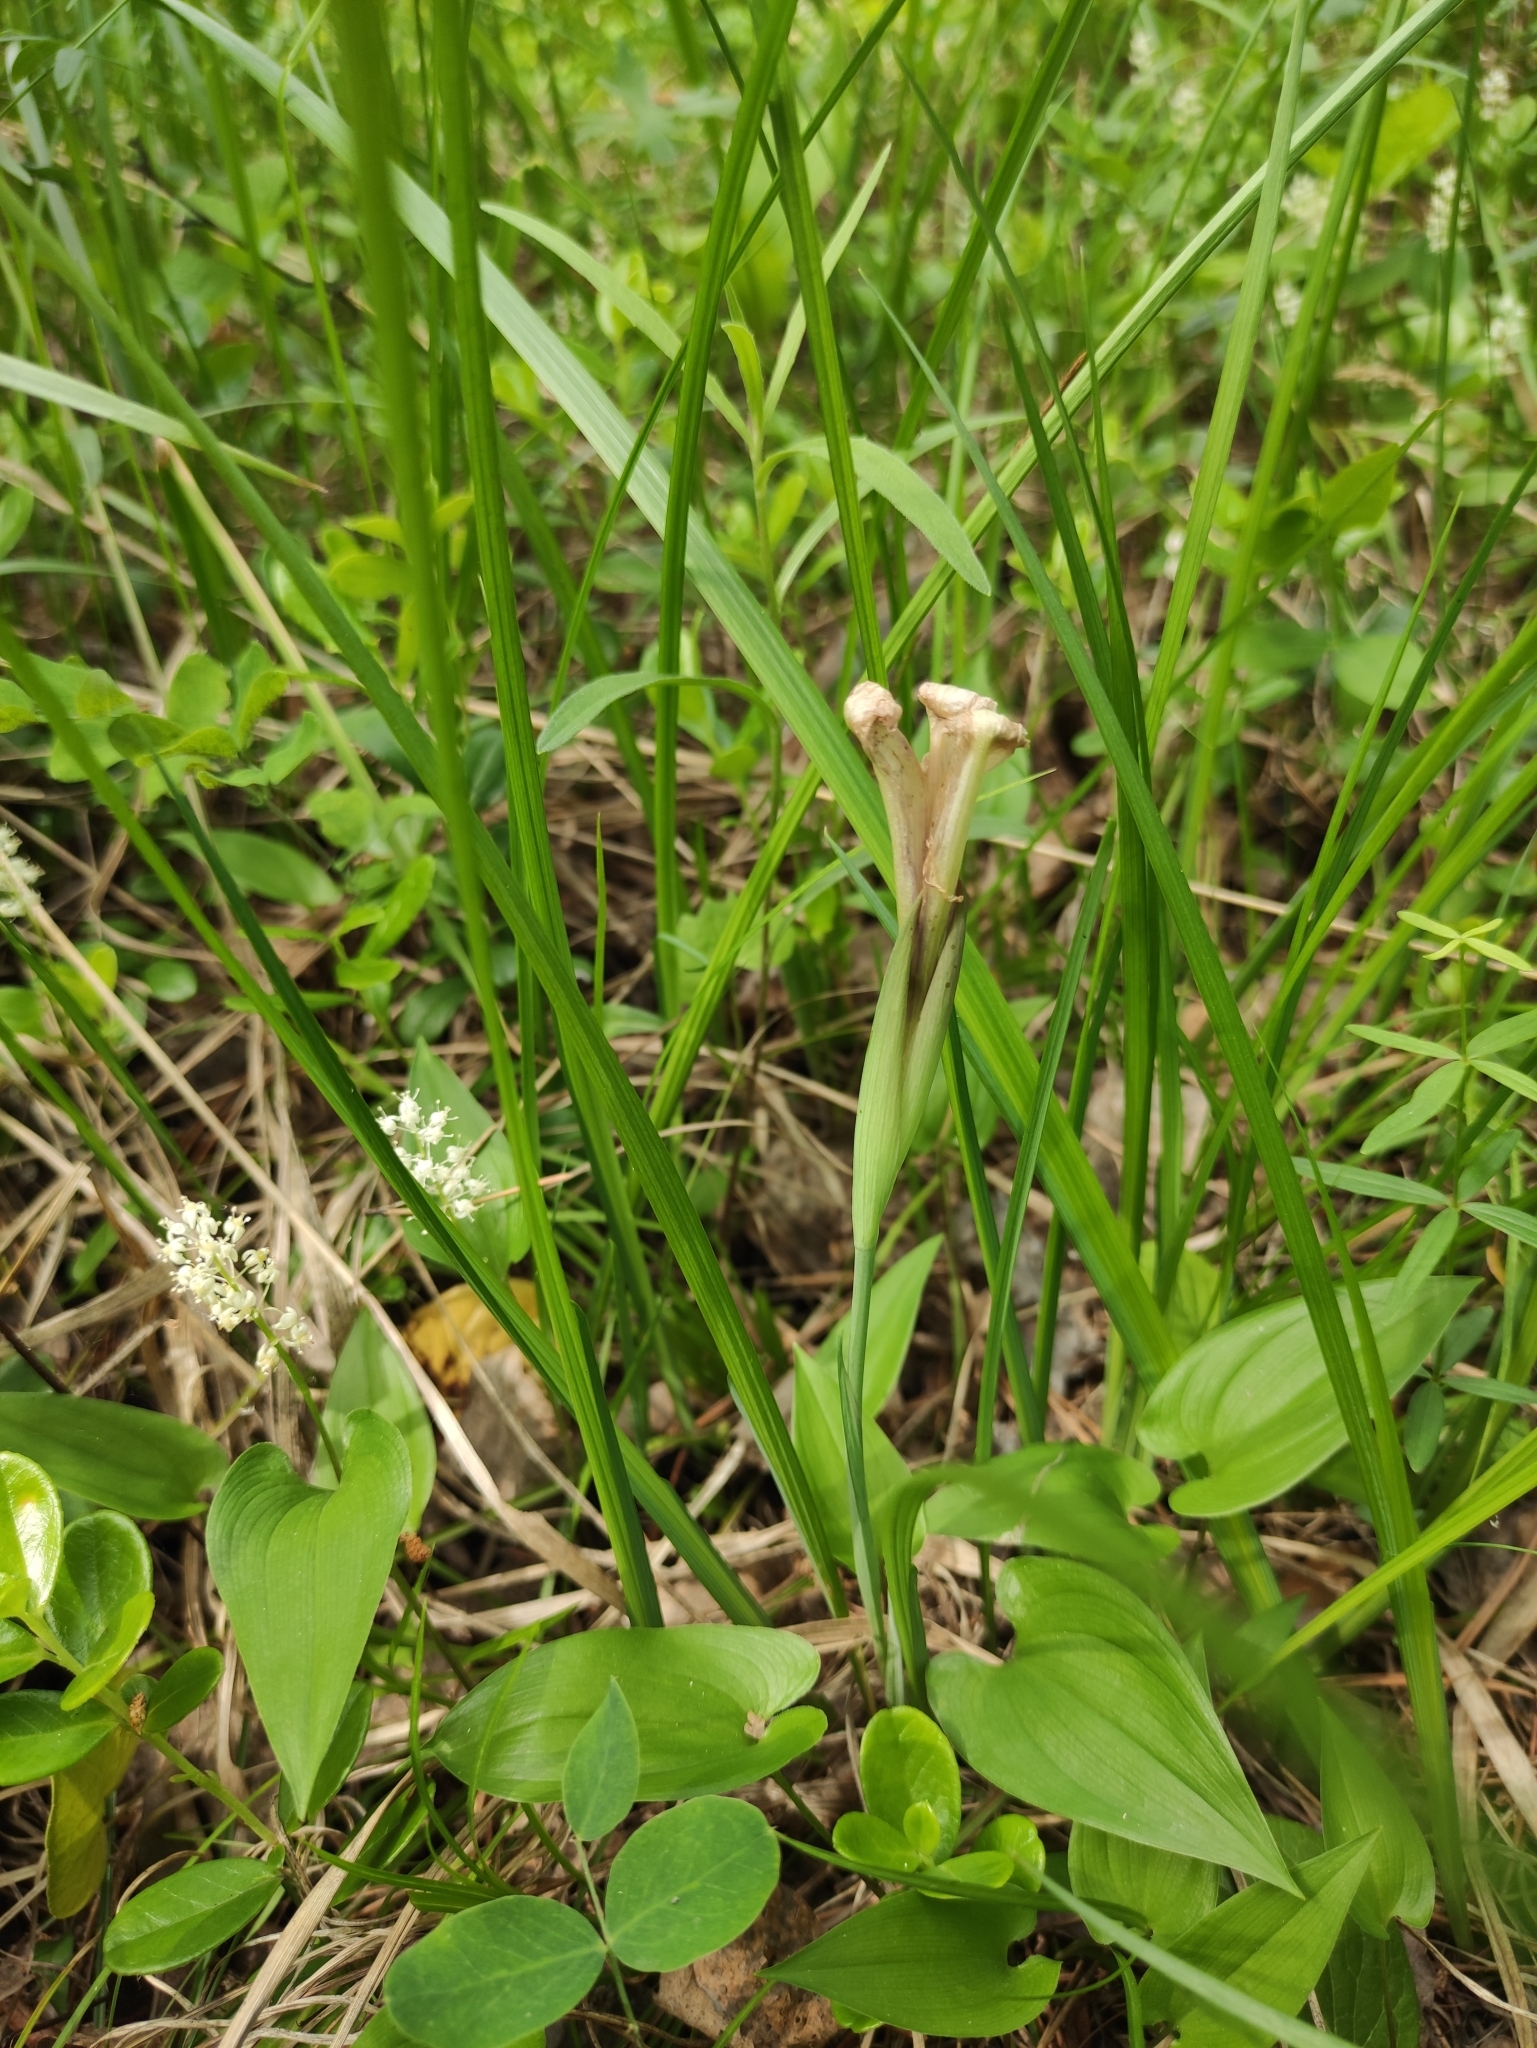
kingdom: Plantae
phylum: Tracheophyta
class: Liliopsida
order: Asparagales
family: Iridaceae
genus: Iris
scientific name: Iris ruthenica
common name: Purple-bract iris
